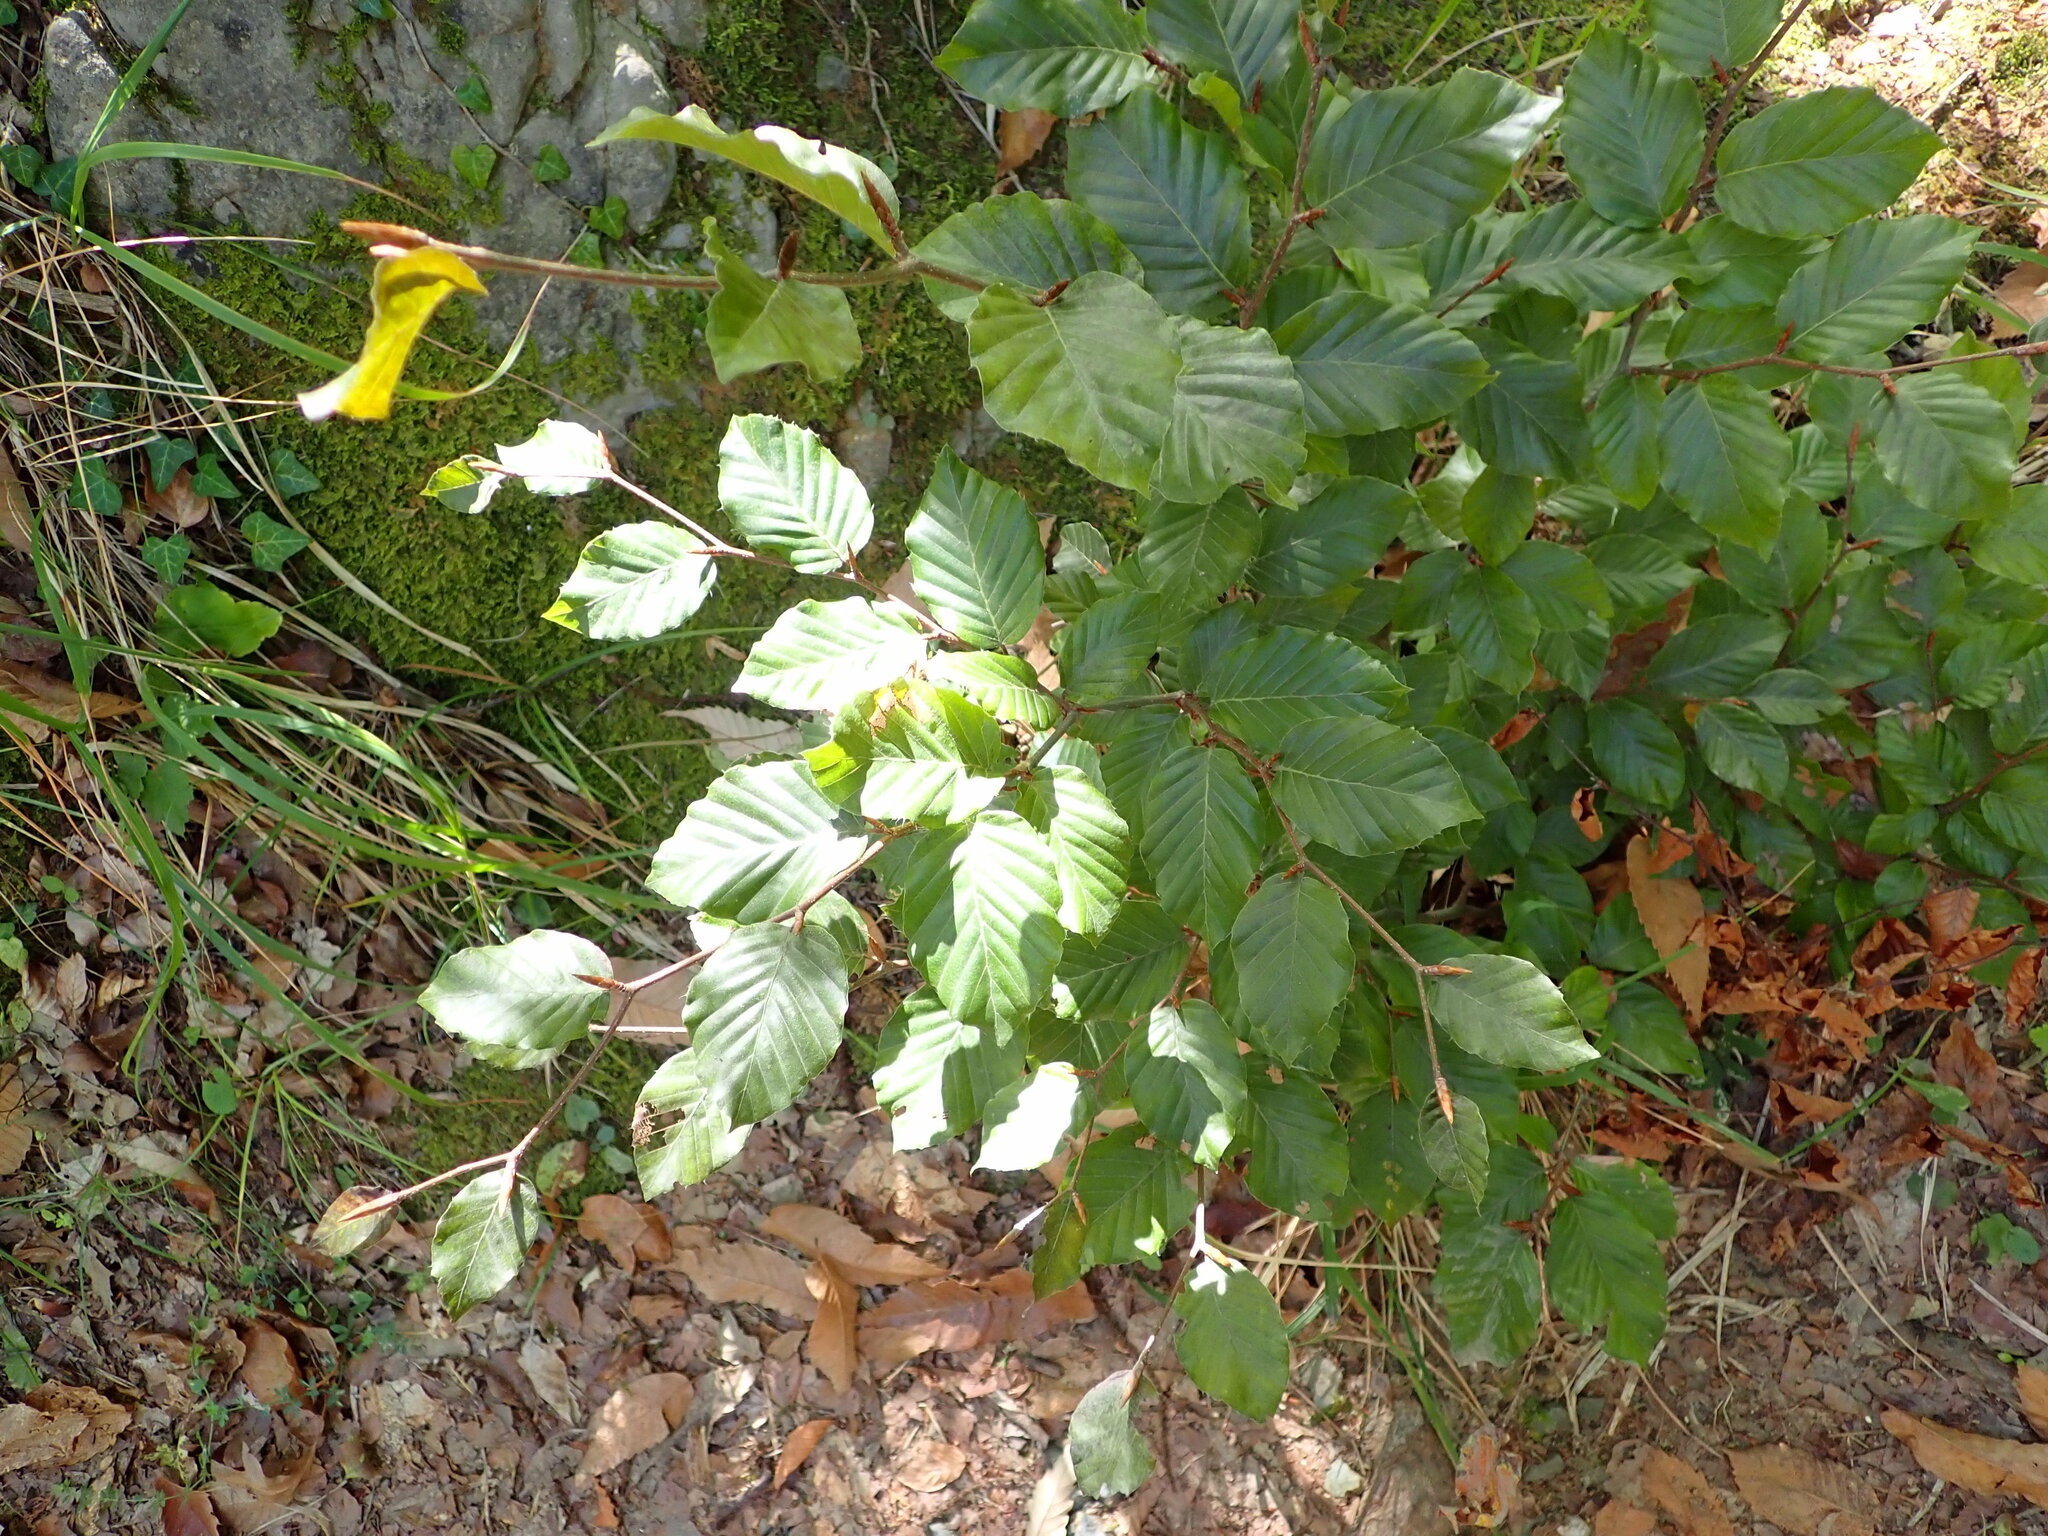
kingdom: Plantae
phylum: Tracheophyta
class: Magnoliopsida
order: Fagales
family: Fagaceae
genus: Fagus
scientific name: Fagus sylvatica
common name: Beech
